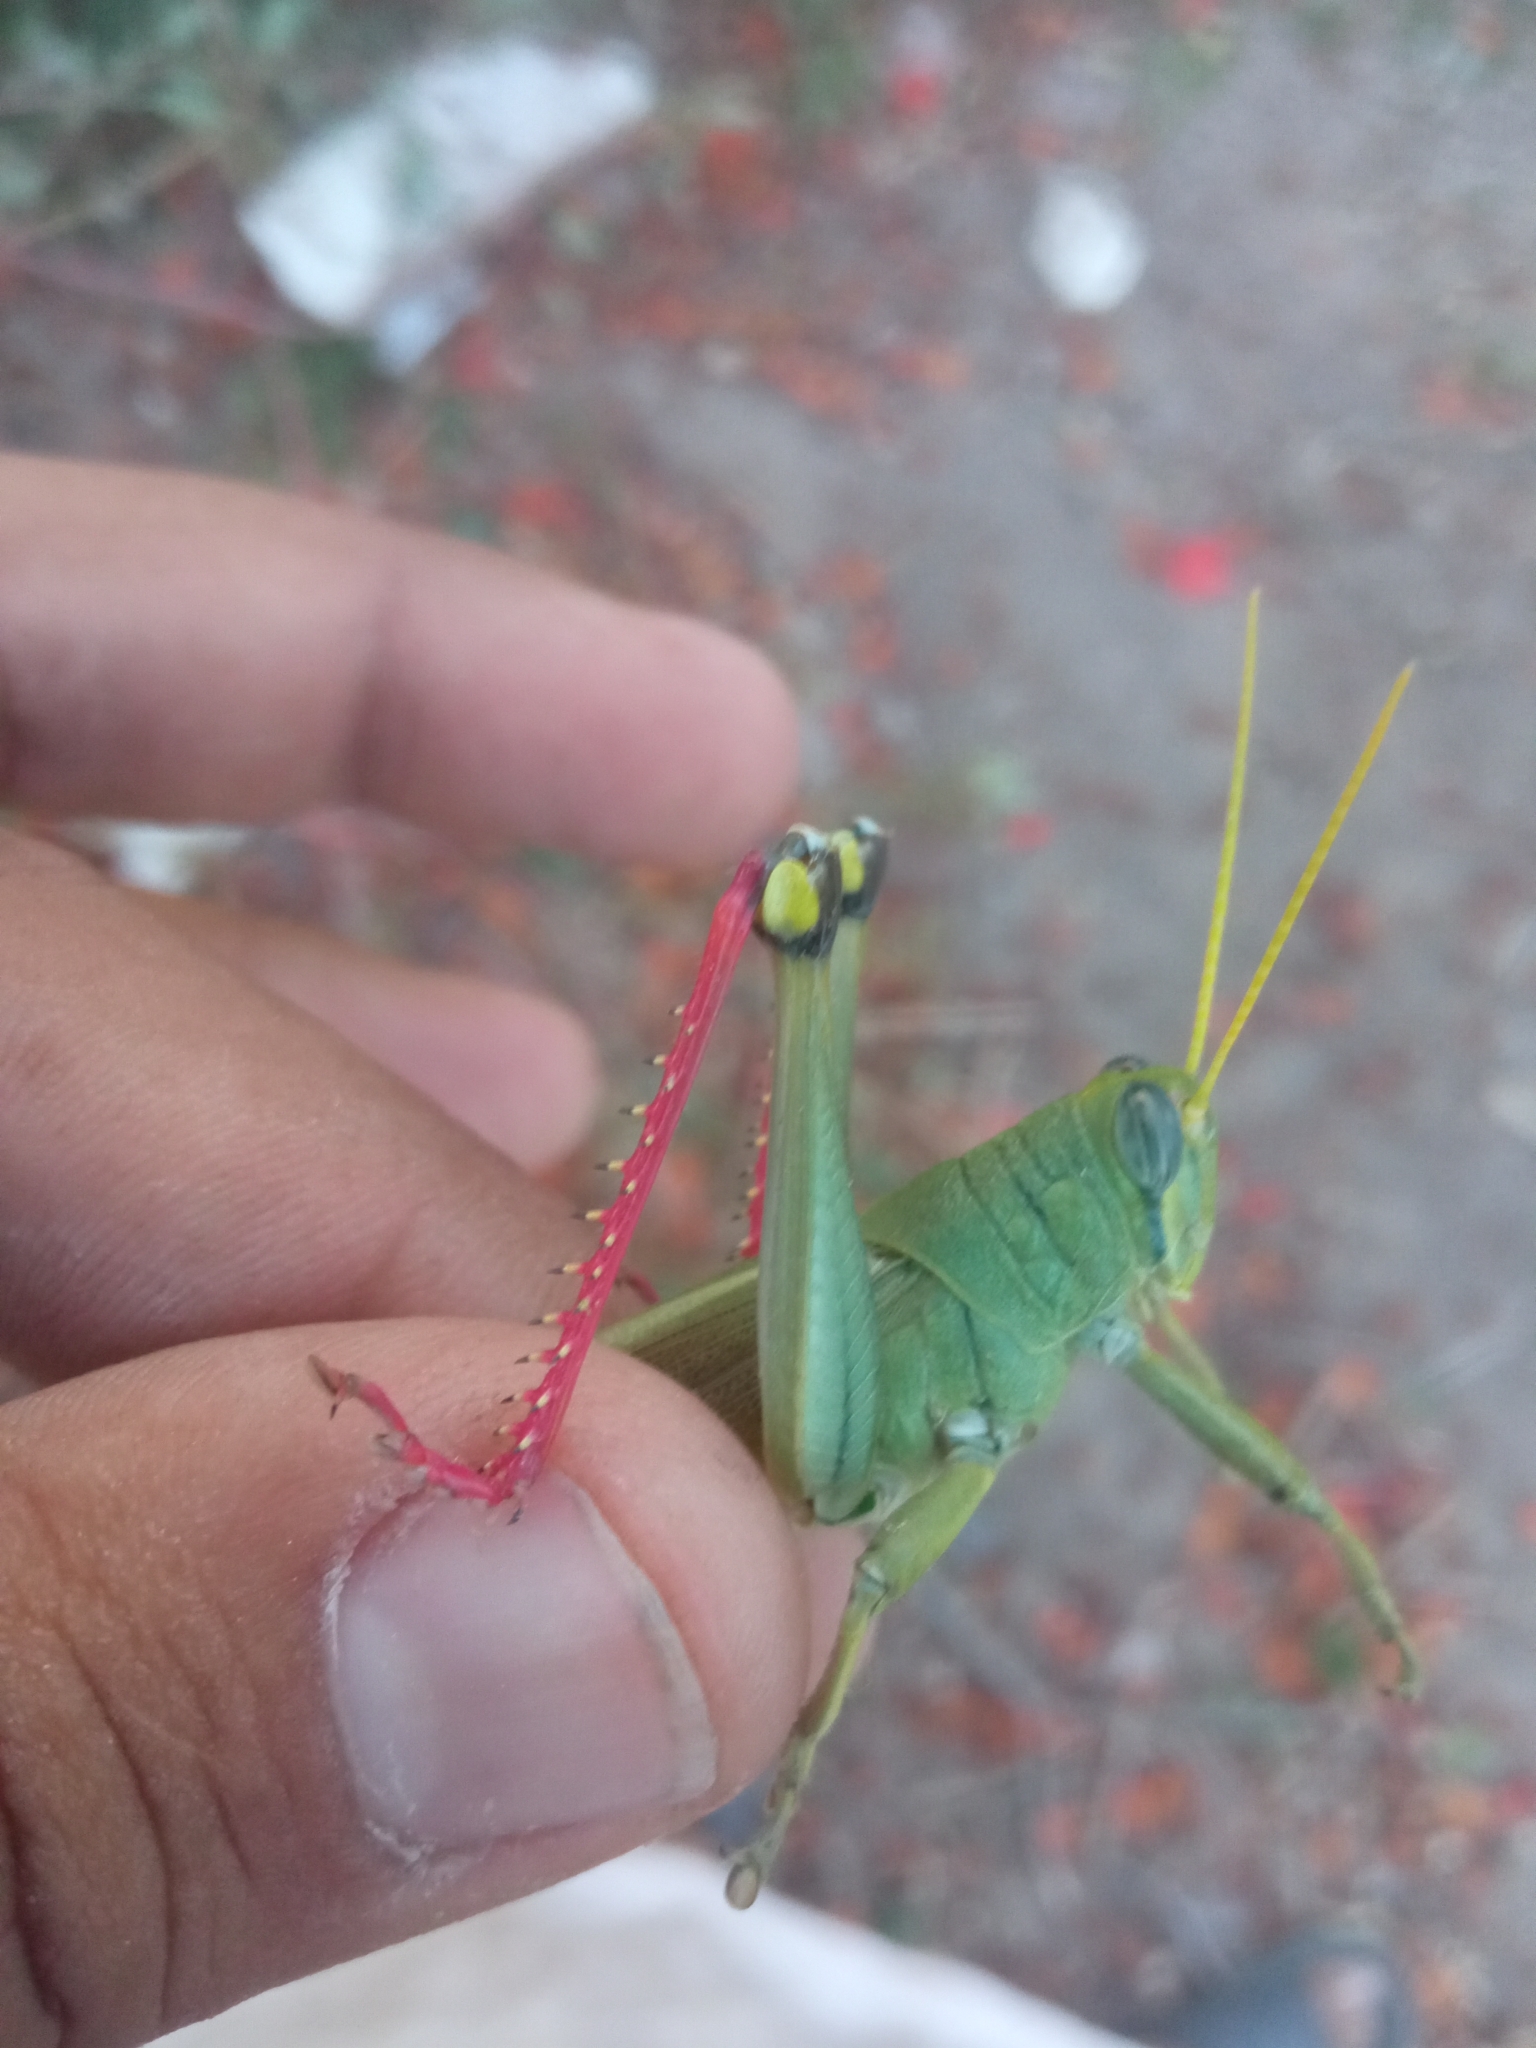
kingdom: Animalia
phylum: Arthropoda
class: Insecta
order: Orthoptera
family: Acrididae
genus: Schistocerca
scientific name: Schistocerca shoshone
